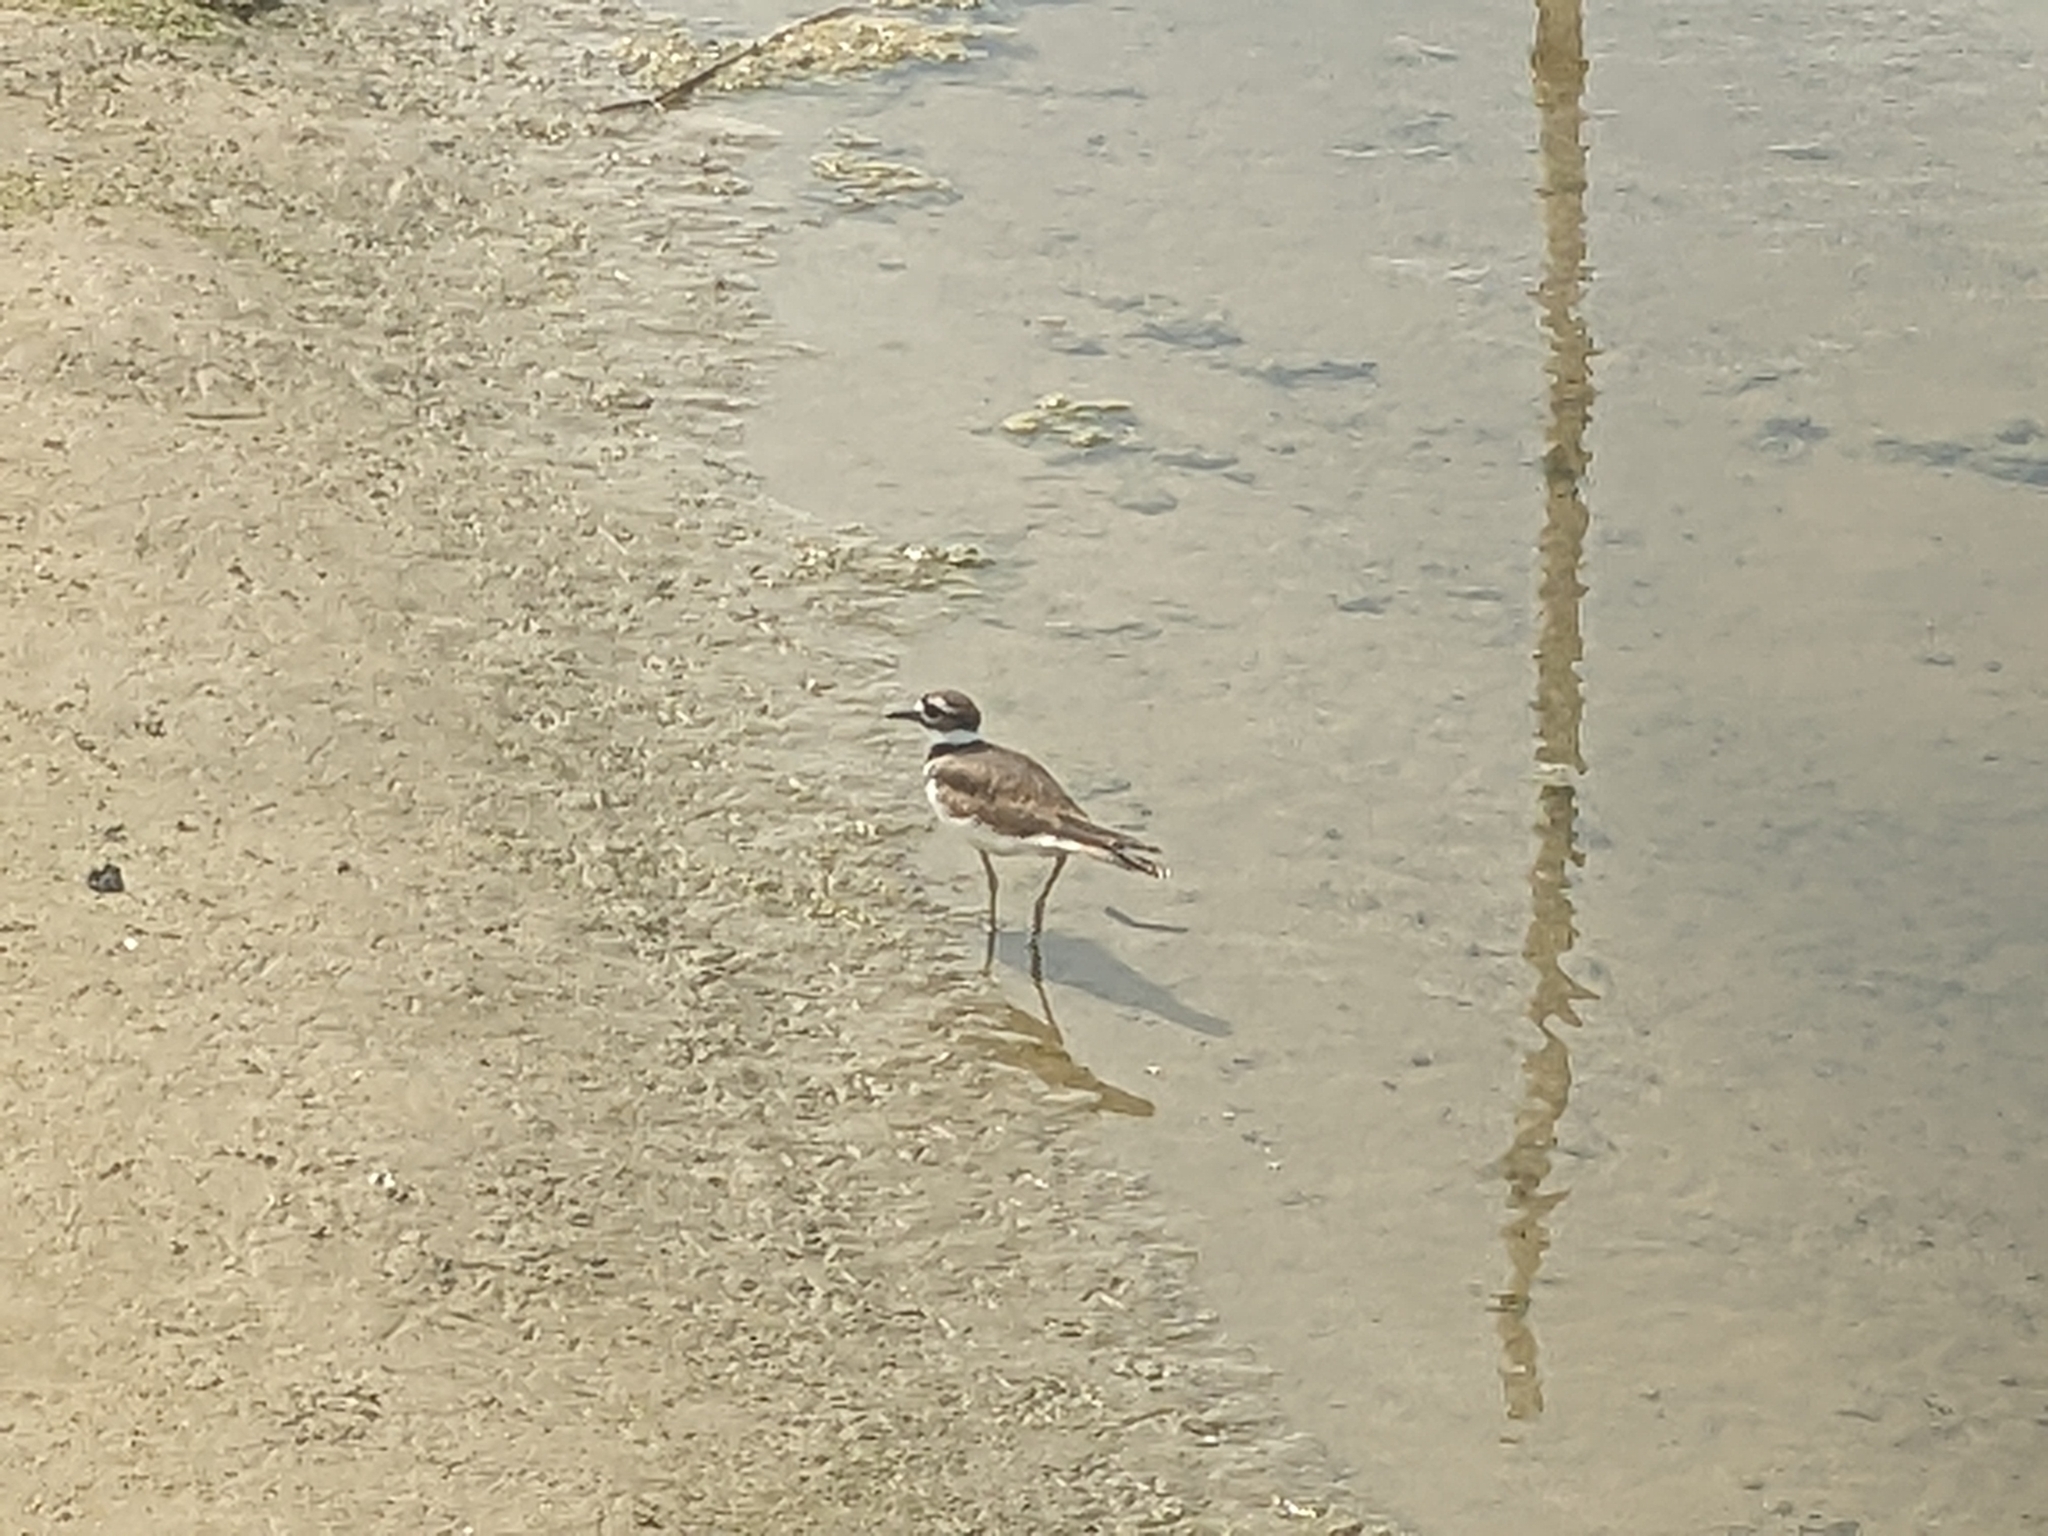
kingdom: Animalia
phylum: Chordata
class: Aves
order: Charadriiformes
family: Charadriidae
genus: Charadrius
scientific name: Charadrius vociferus
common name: Killdeer
